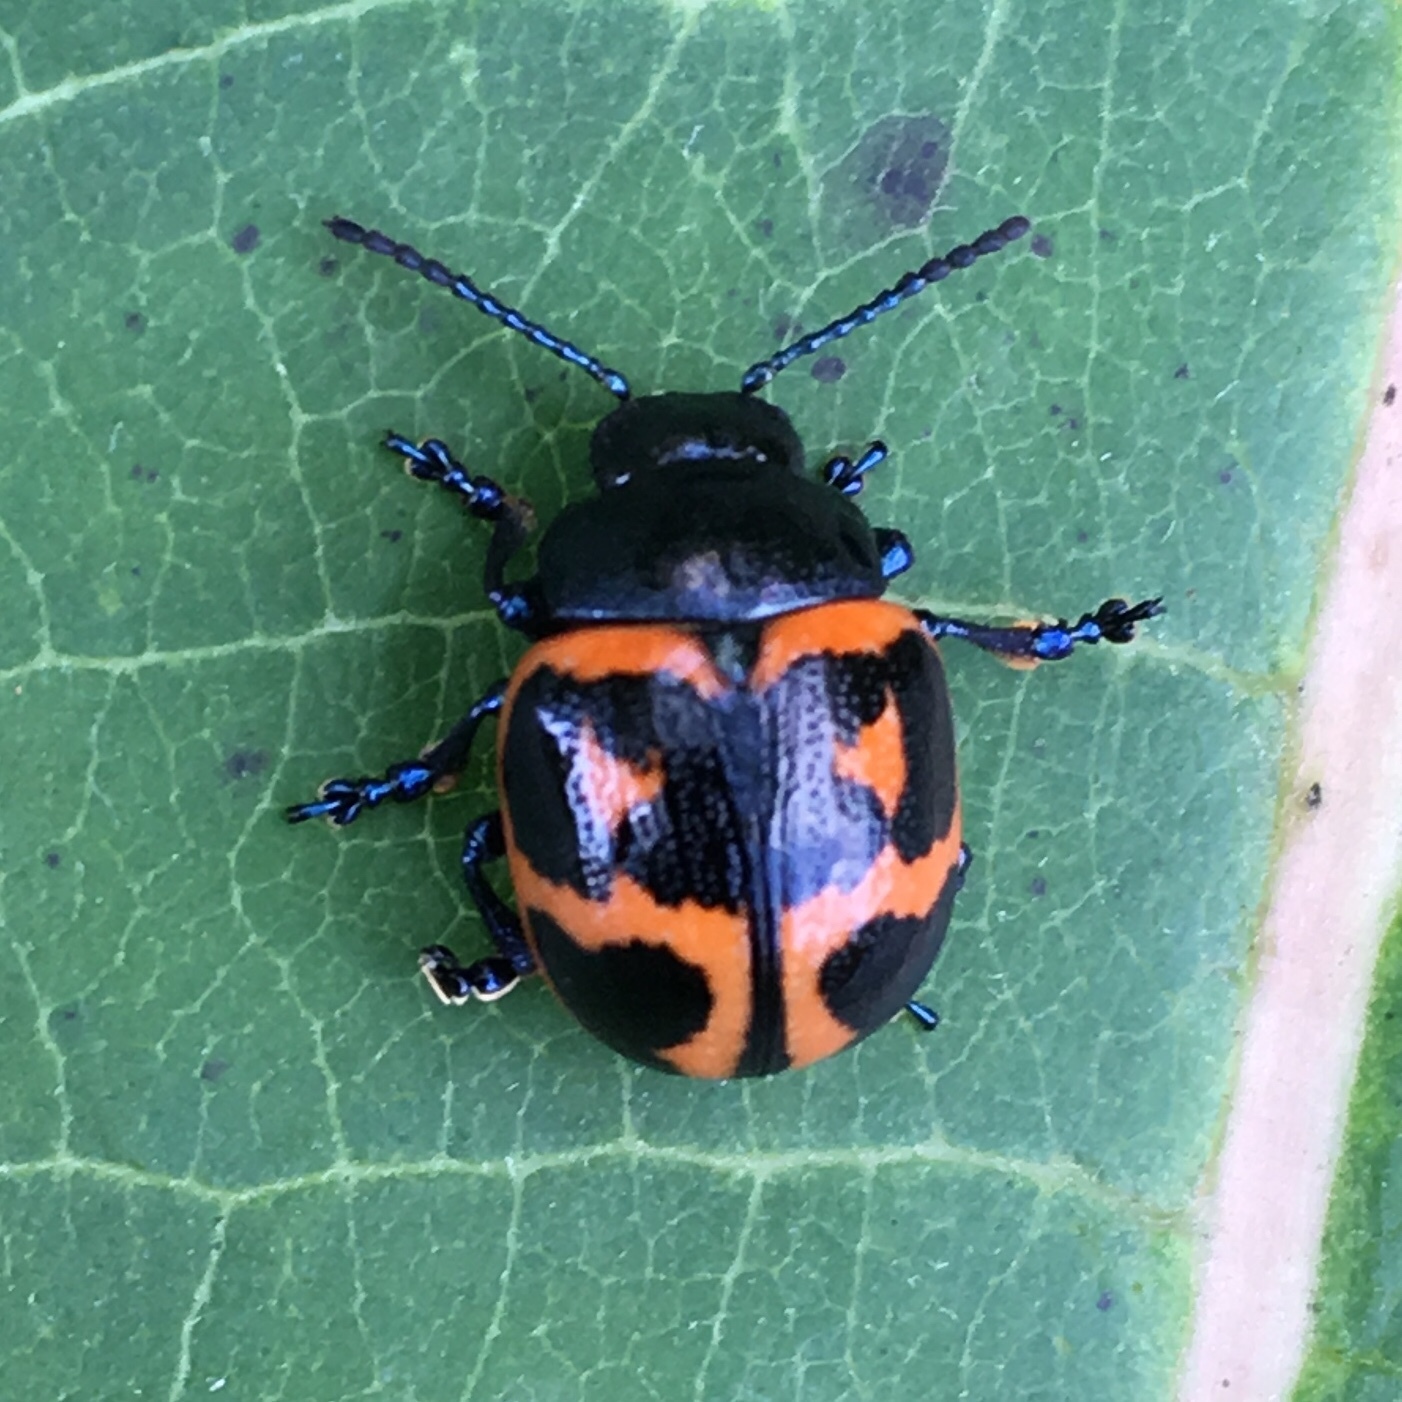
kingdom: Animalia
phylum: Arthropoda
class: Insecta
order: Coleoptera
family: Chrysomelidae
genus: Labidomera
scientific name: Labidomera clivicollis
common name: Swamp milkweed leaf beetle
